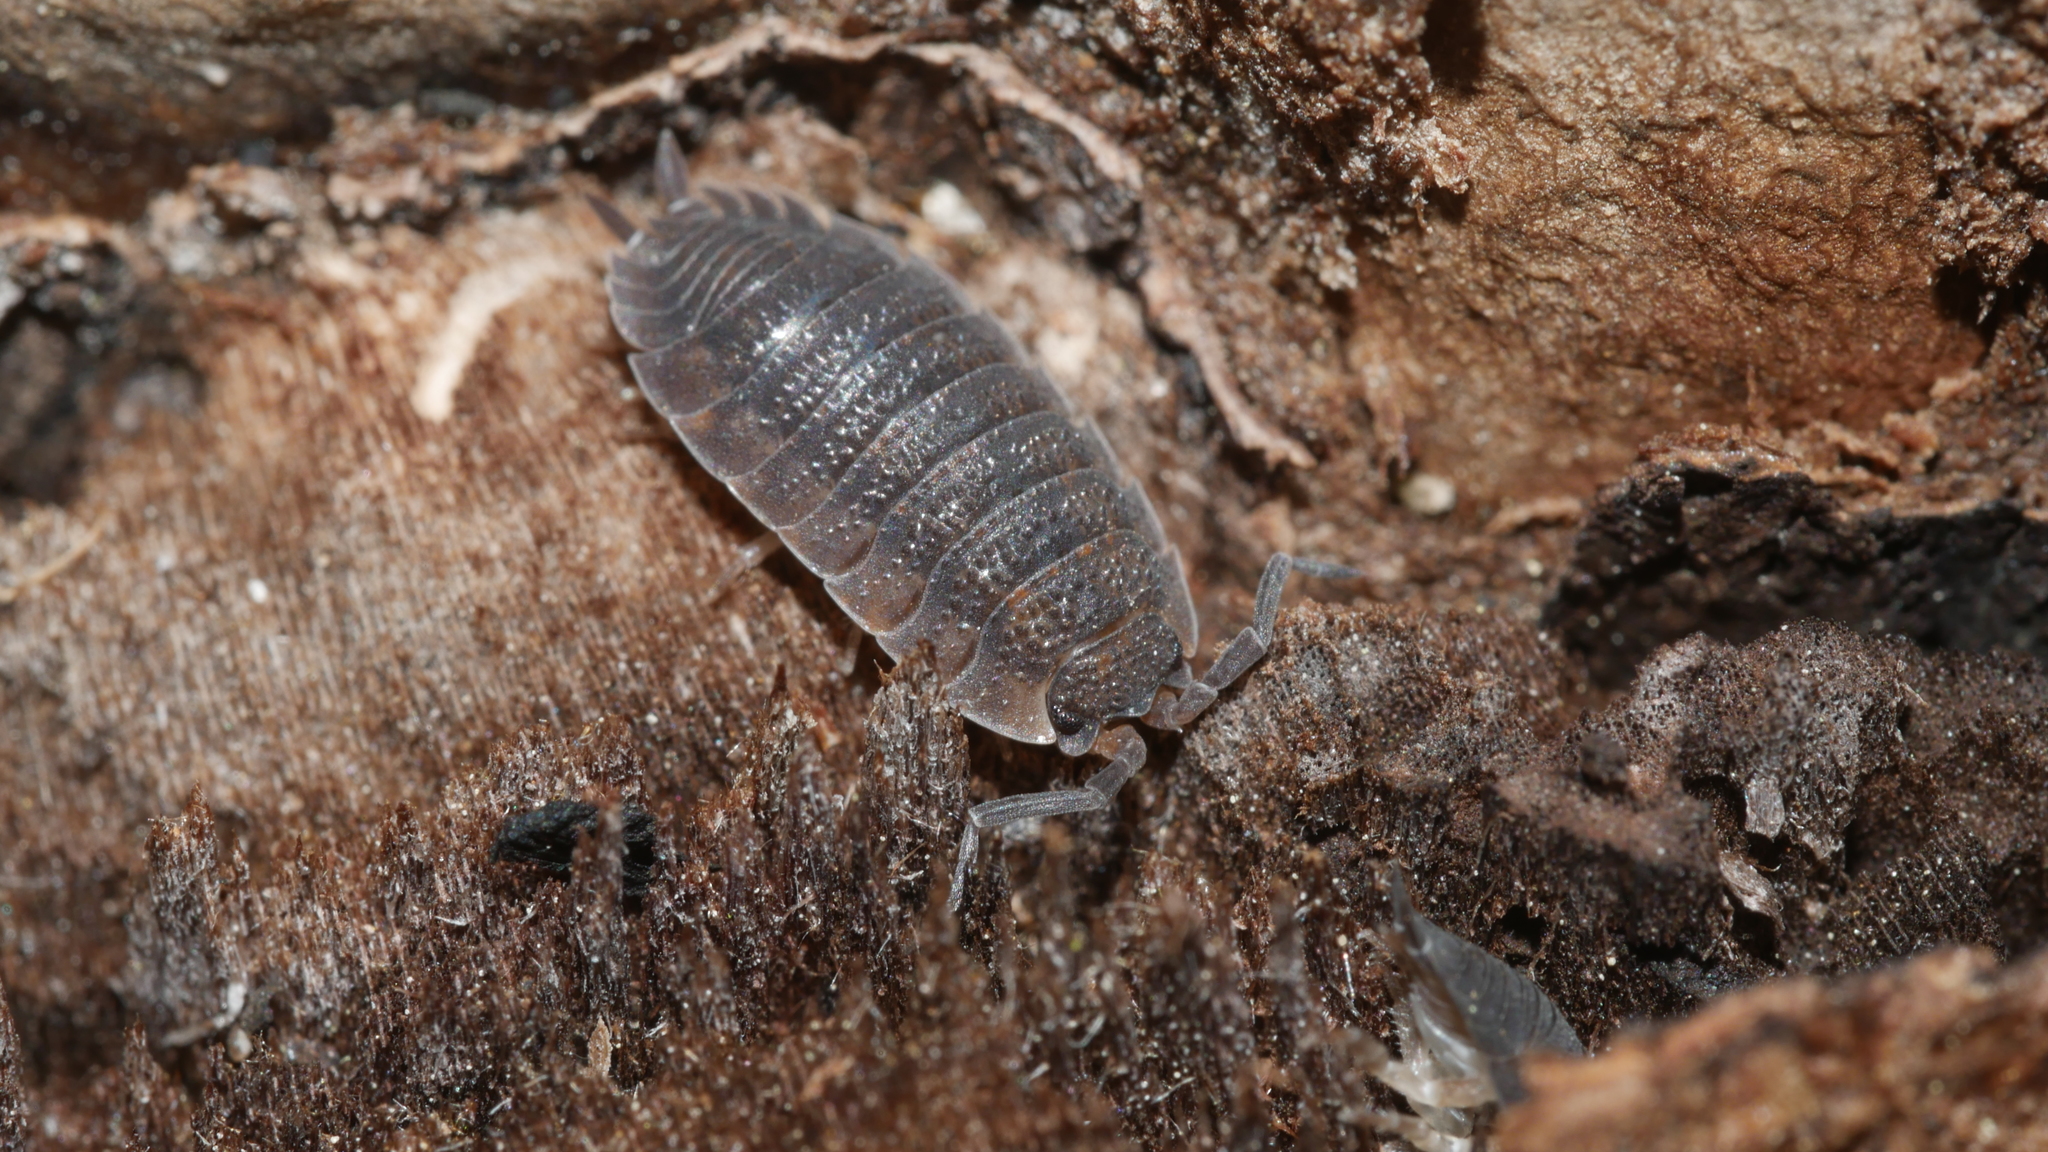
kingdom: Animalia
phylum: Arthropoda
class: Malacostraca
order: Isopoda
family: Porcellionidae
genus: Porcellio
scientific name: Porcellio scaber
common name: Common rough woodlouse
